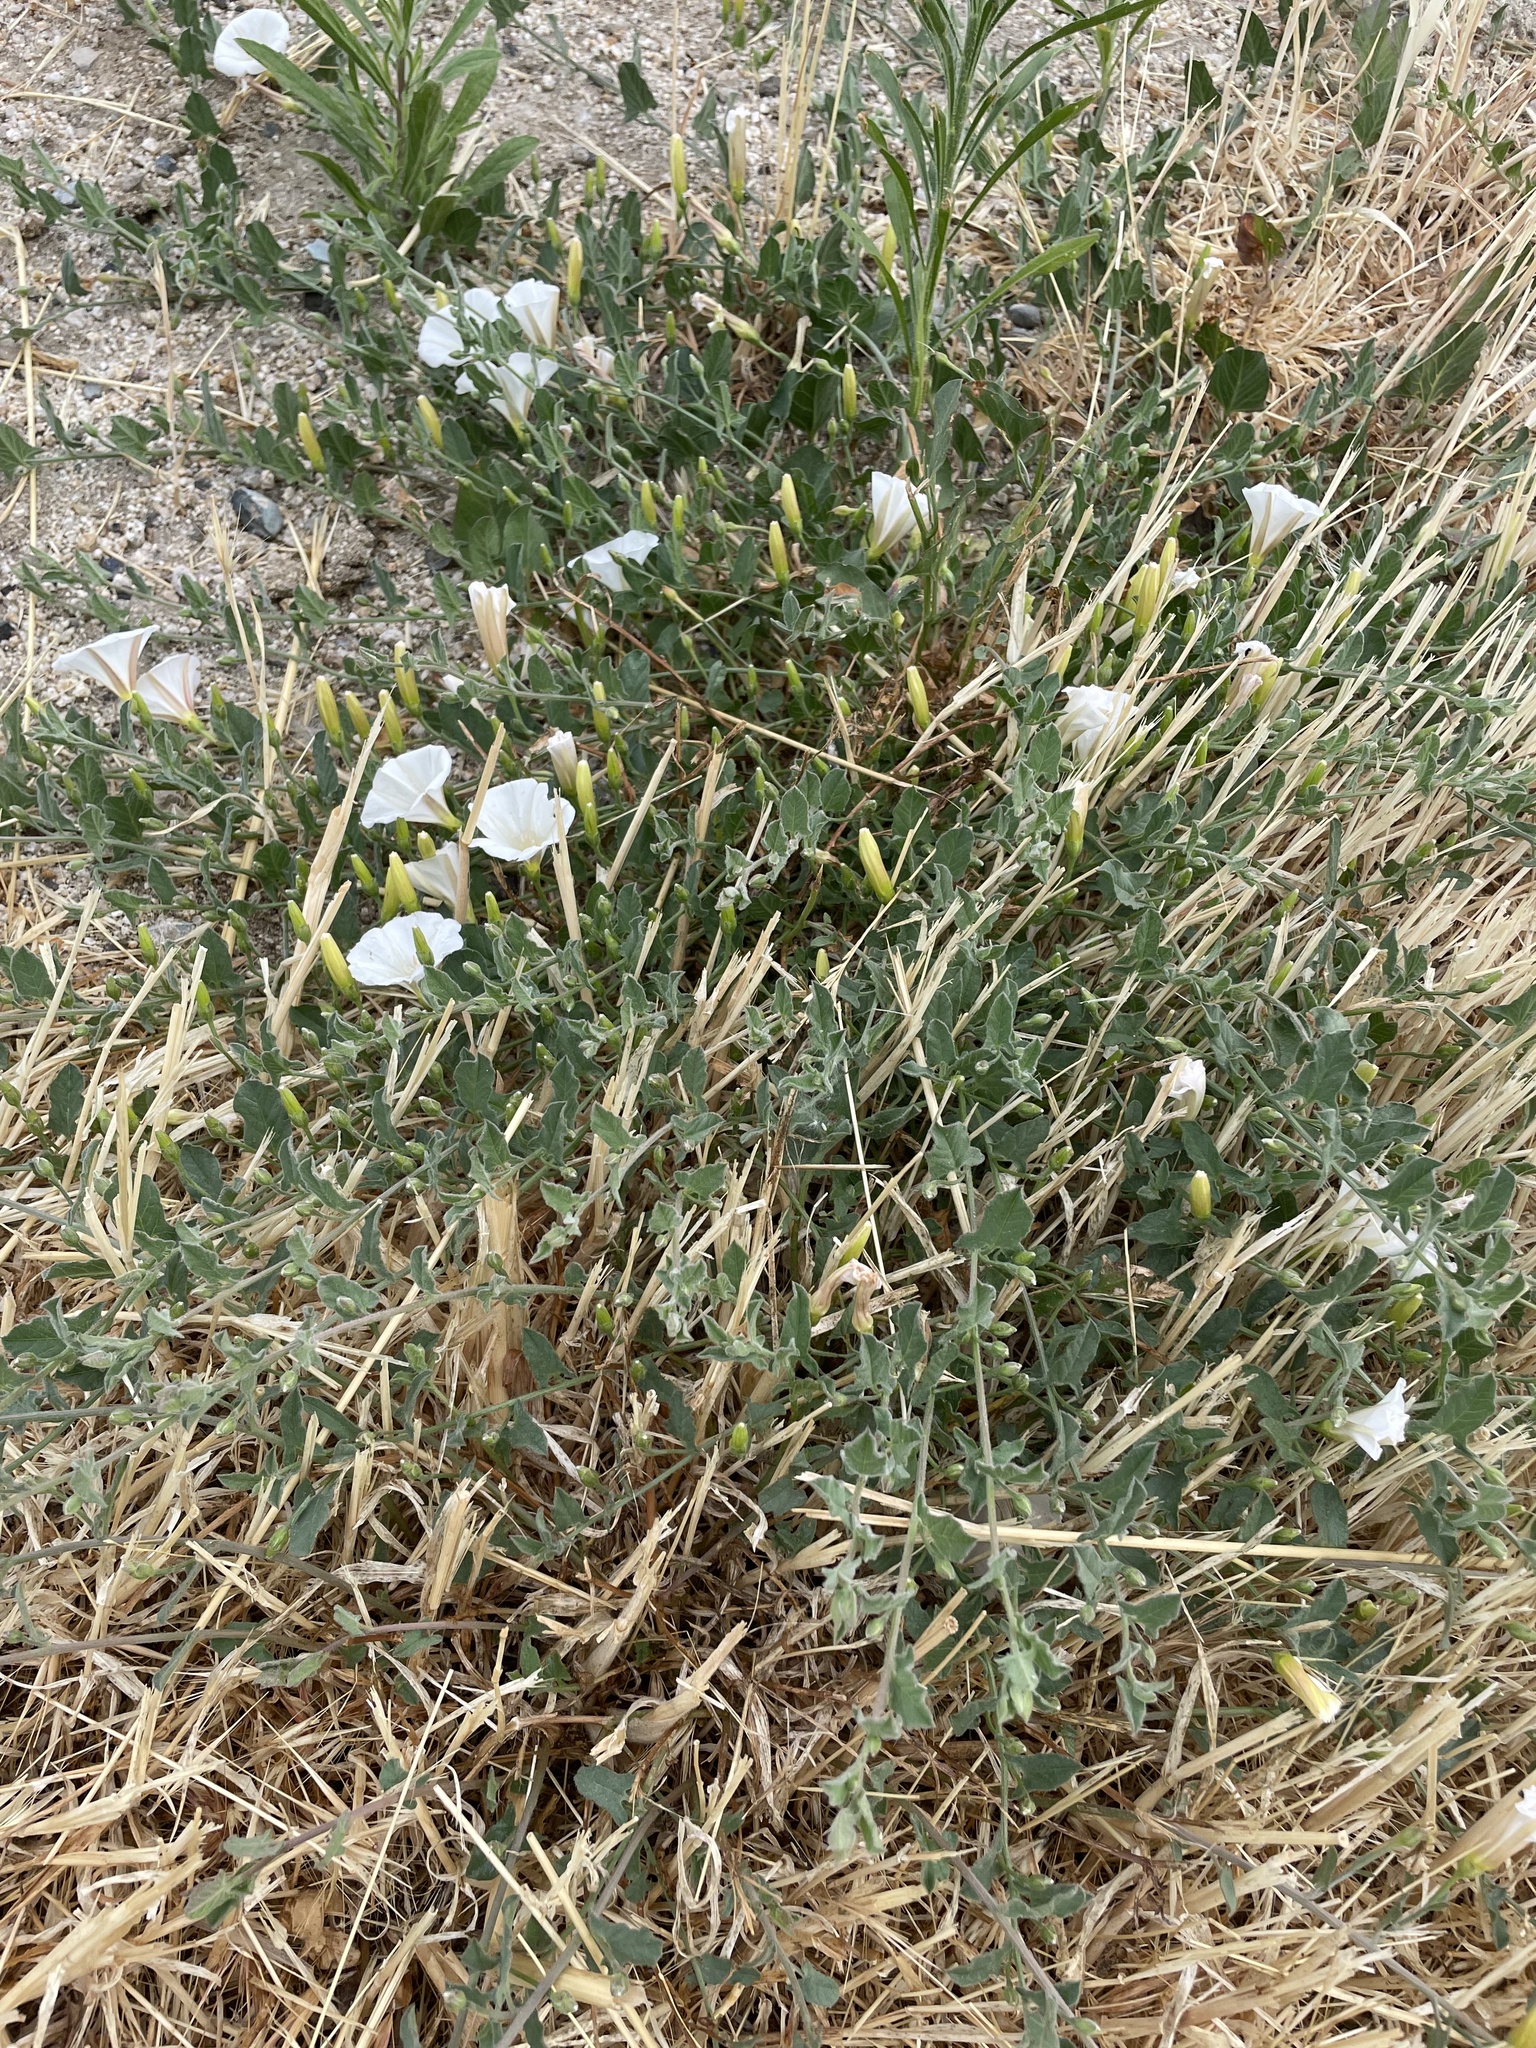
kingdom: Plantae
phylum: Tracheophyta
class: Magnoliopsida
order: Solanales
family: Convolvulaceae
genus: Convolvulus
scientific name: Convolvulus arvensis
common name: Field bindweed
